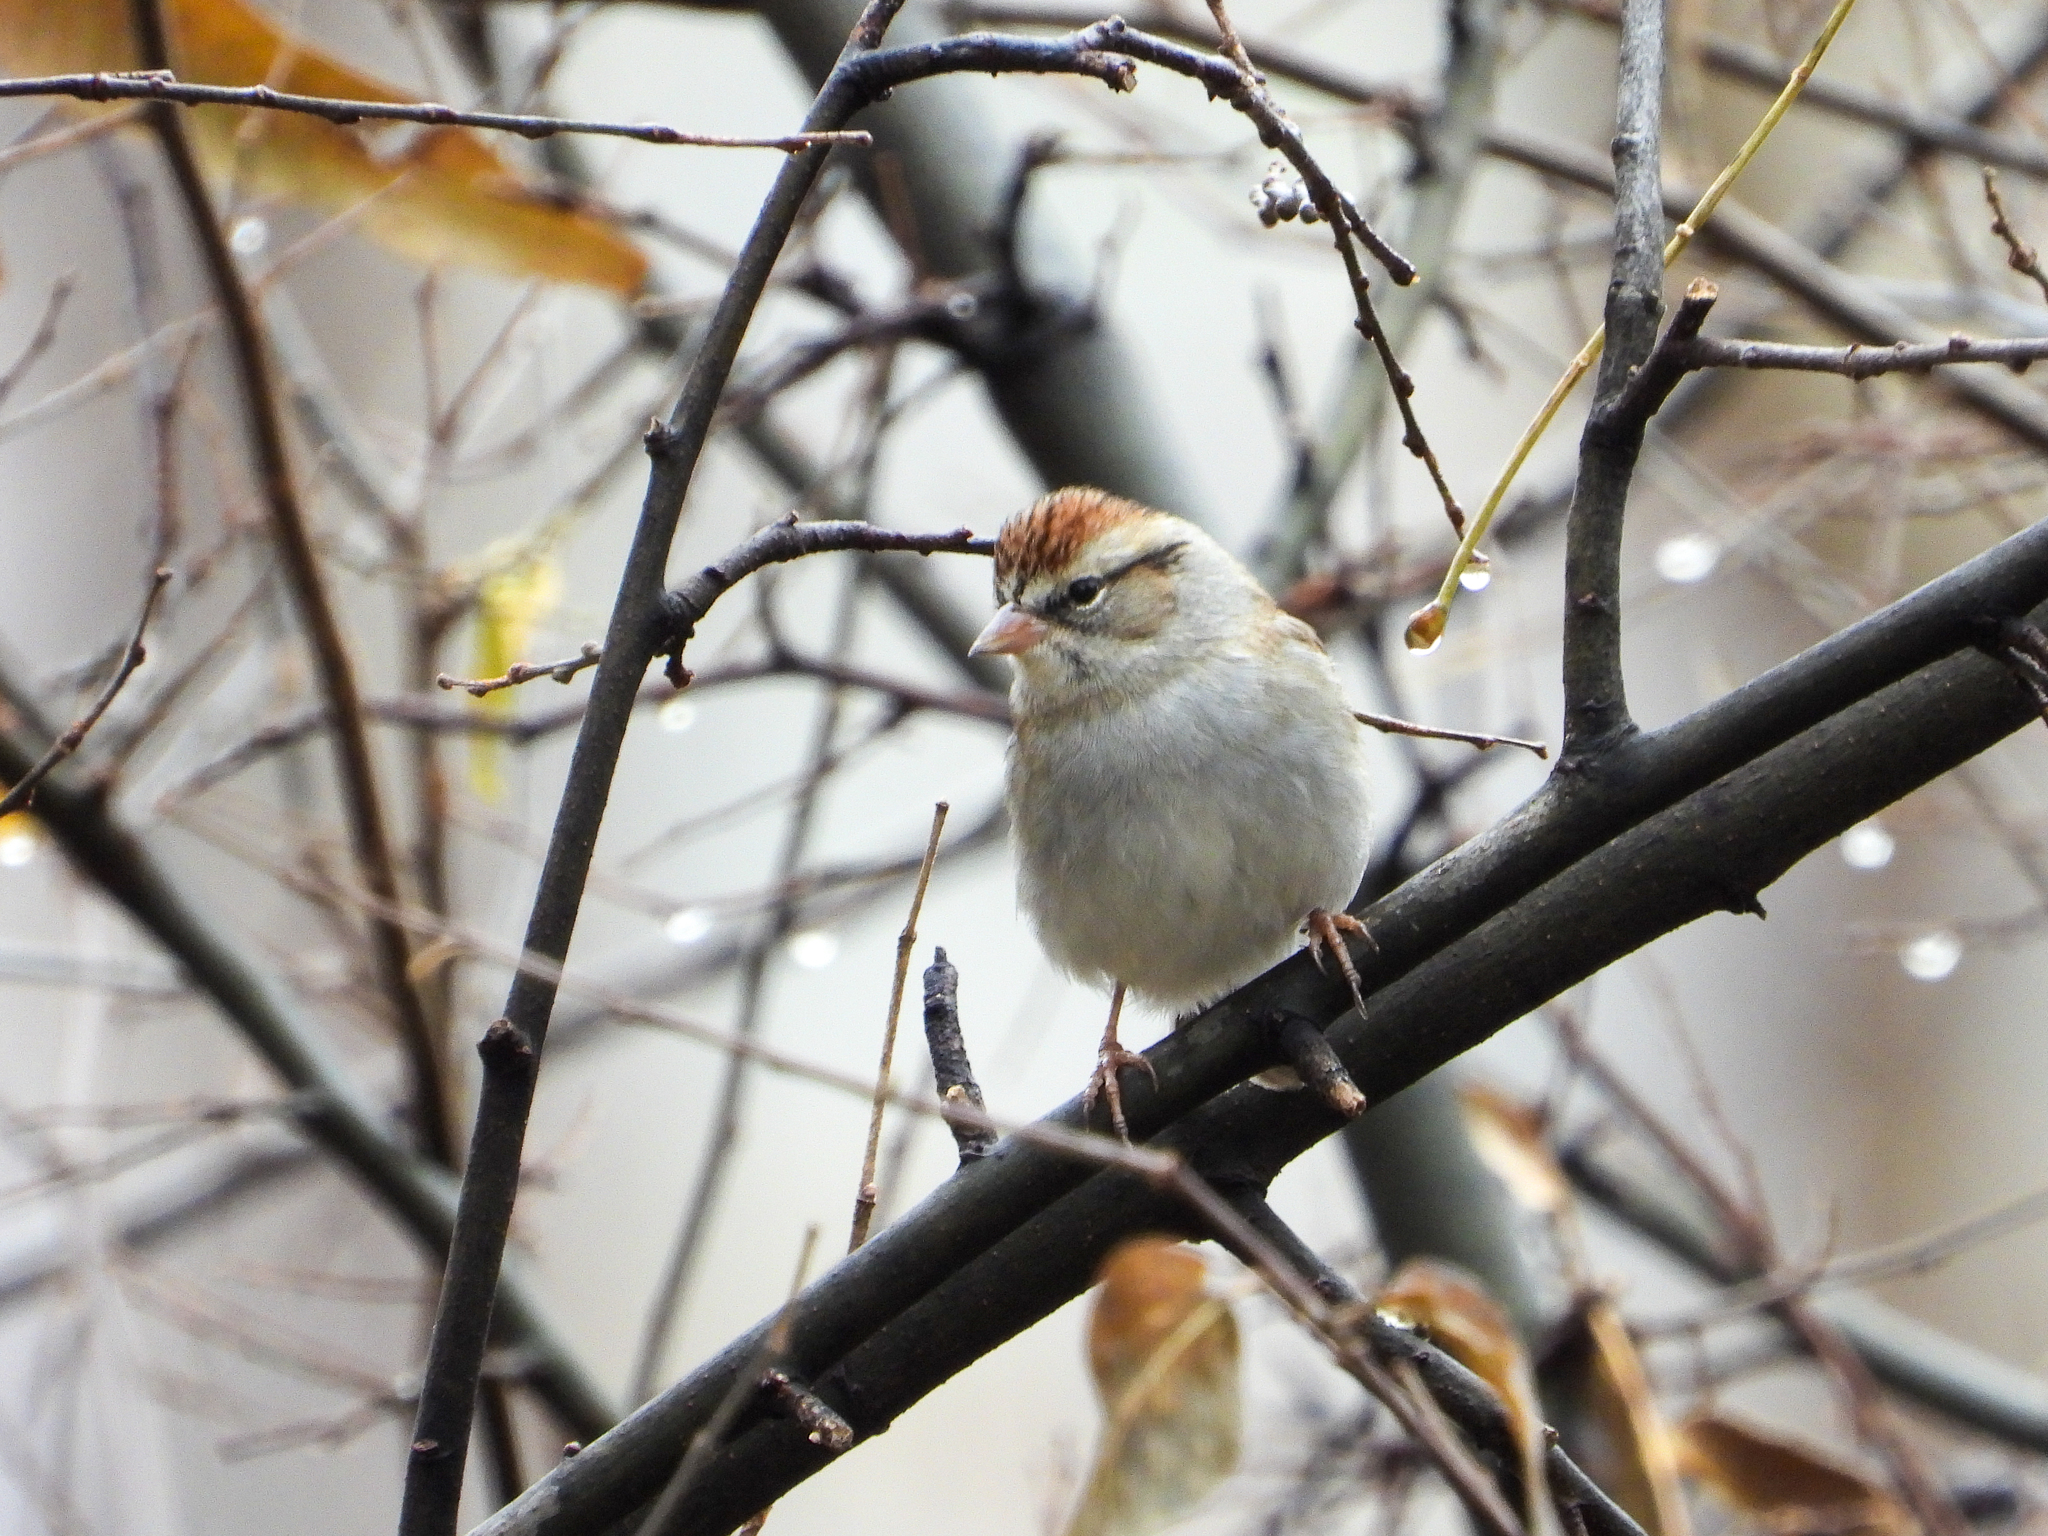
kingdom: Animalia
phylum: Chordata
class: Aves
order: Passeriformes
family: Passerellidae
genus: Spizella
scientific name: Spizella passerina
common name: Chipping sparrow
